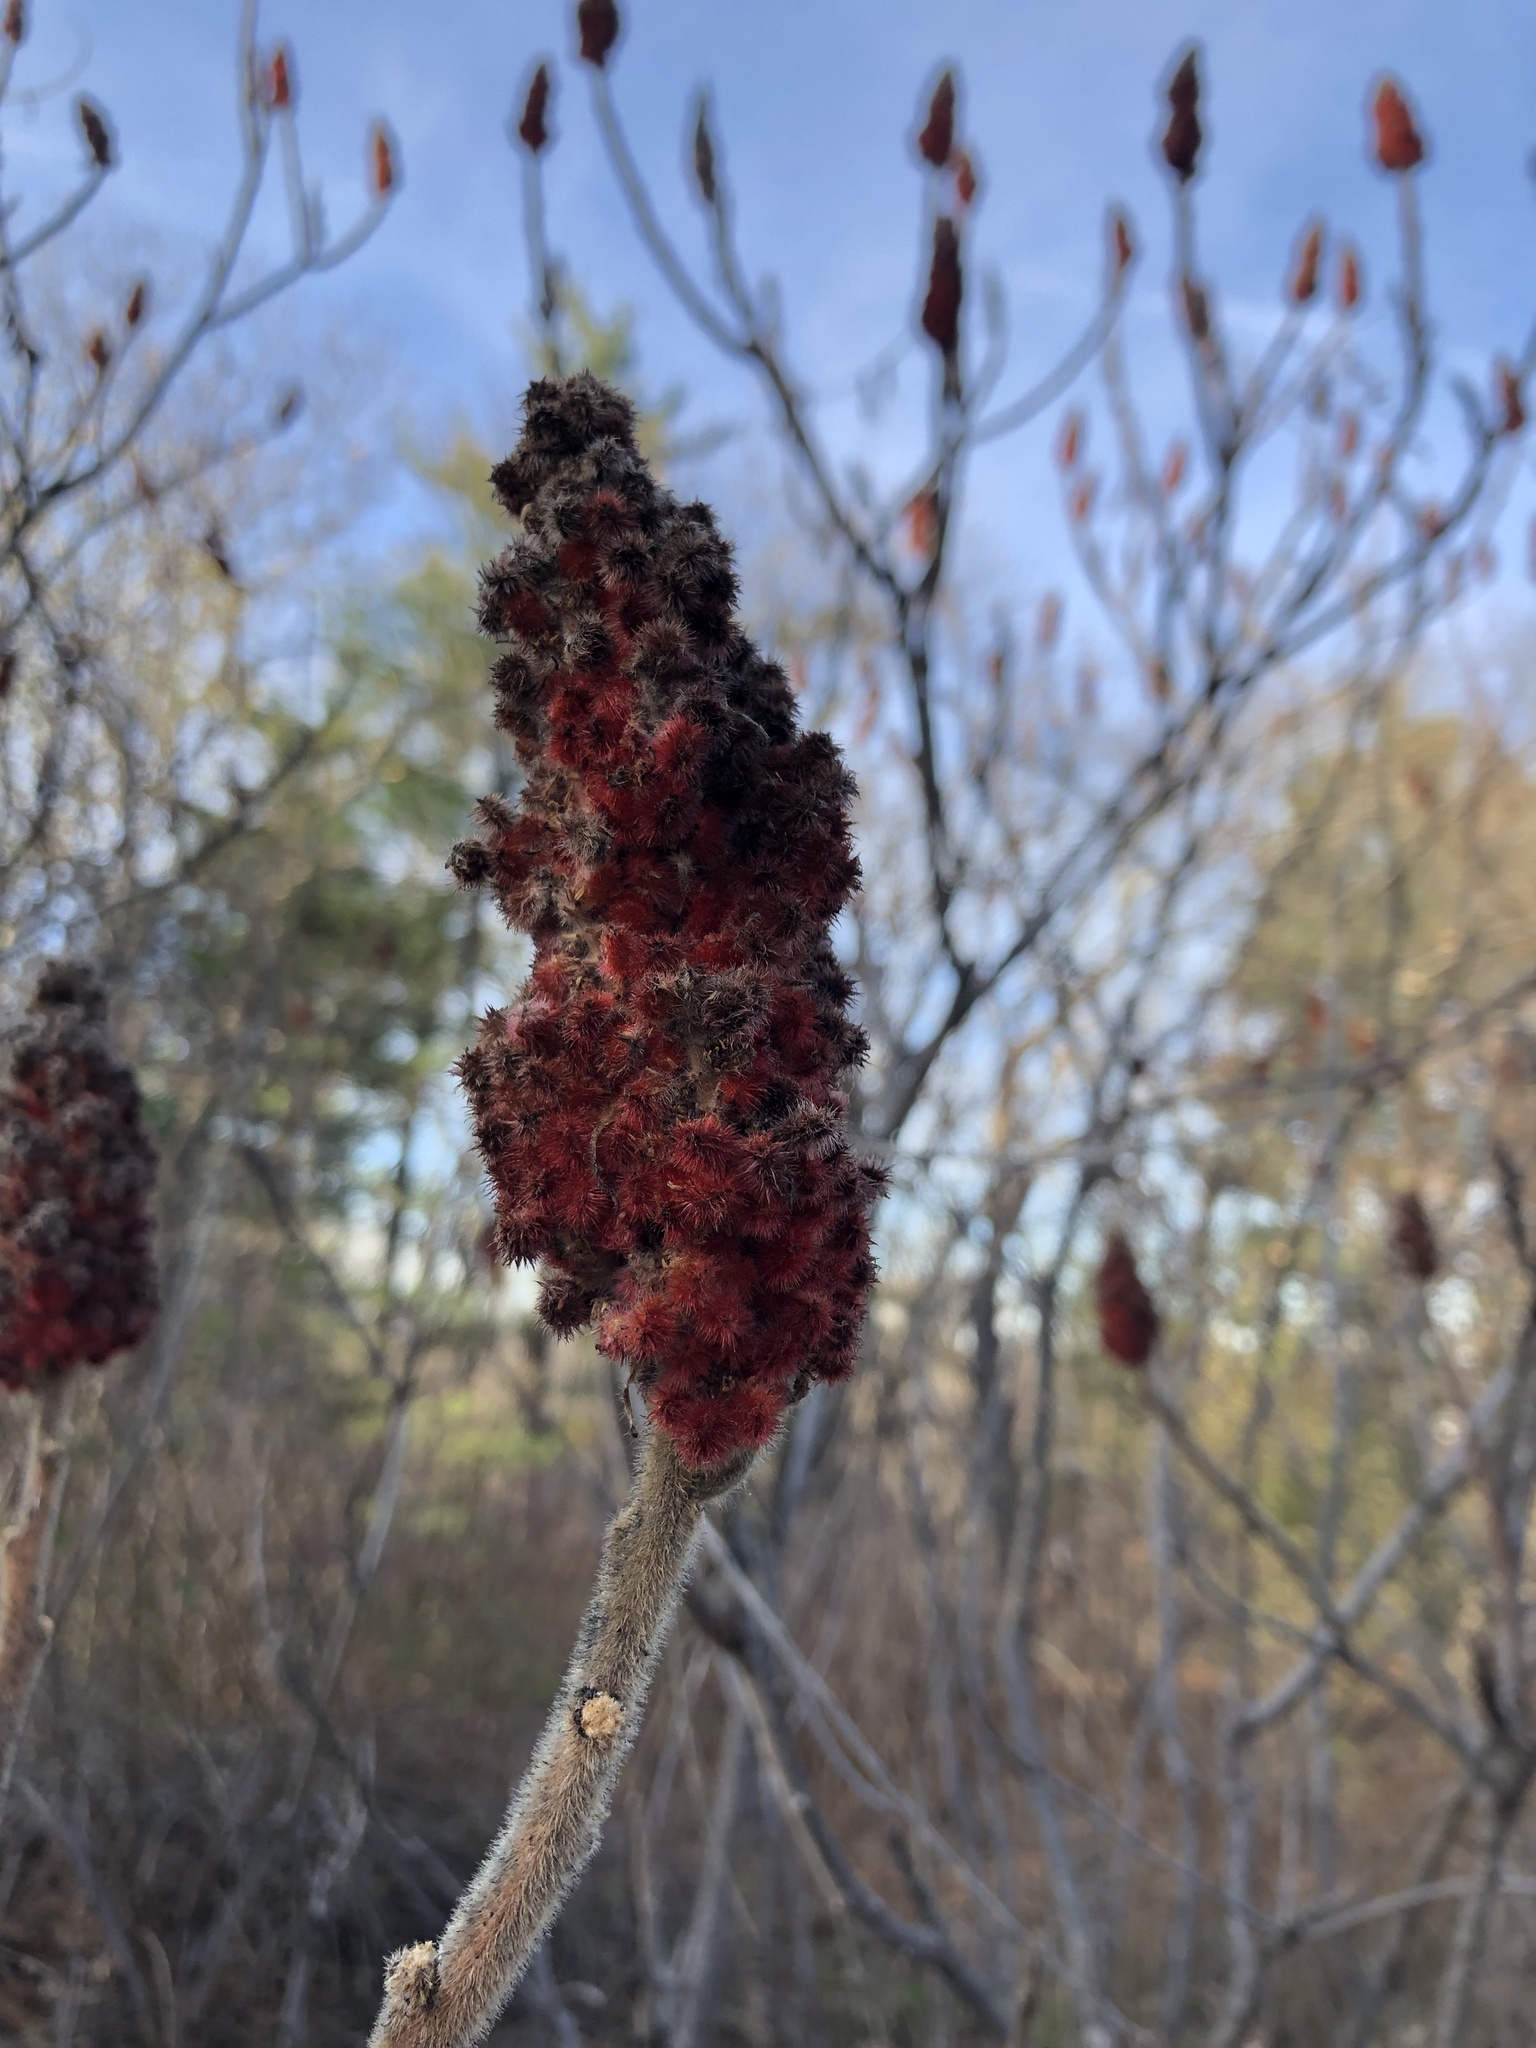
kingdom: Plantae
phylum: Tracheophyta
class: Magnoliopsida
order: Sapindales
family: Anacardiaceae
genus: Rhus
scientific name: Rhus typhina
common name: Staghorn sumac
